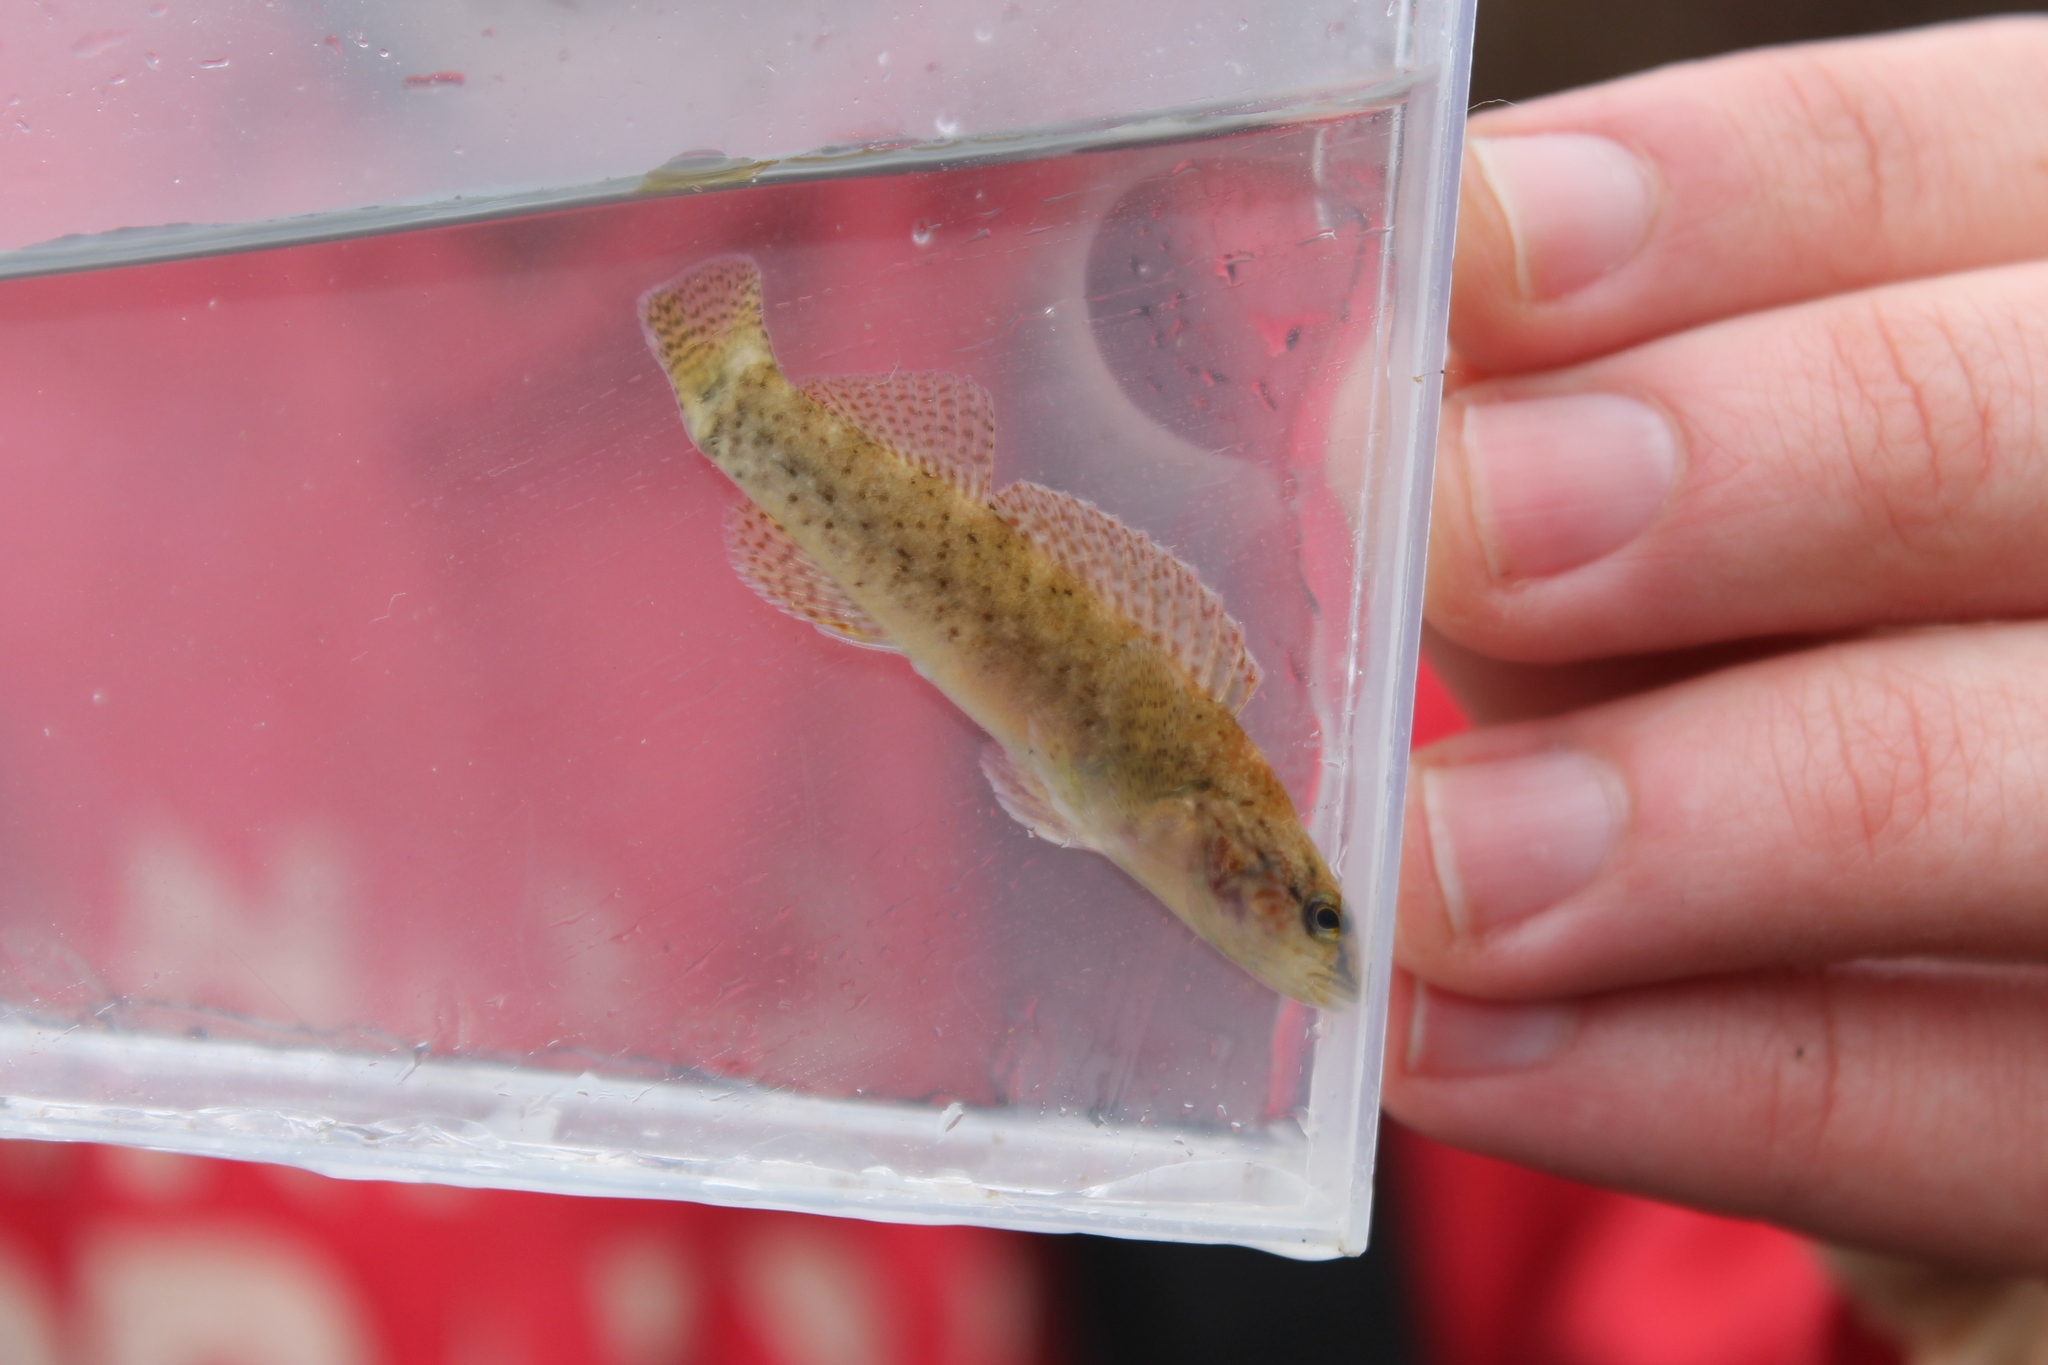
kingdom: Animalia
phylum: Chordata
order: Perciformes
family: Percidae
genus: Etheostoma
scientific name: Etheostoma rufilineatum
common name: Redline darter
